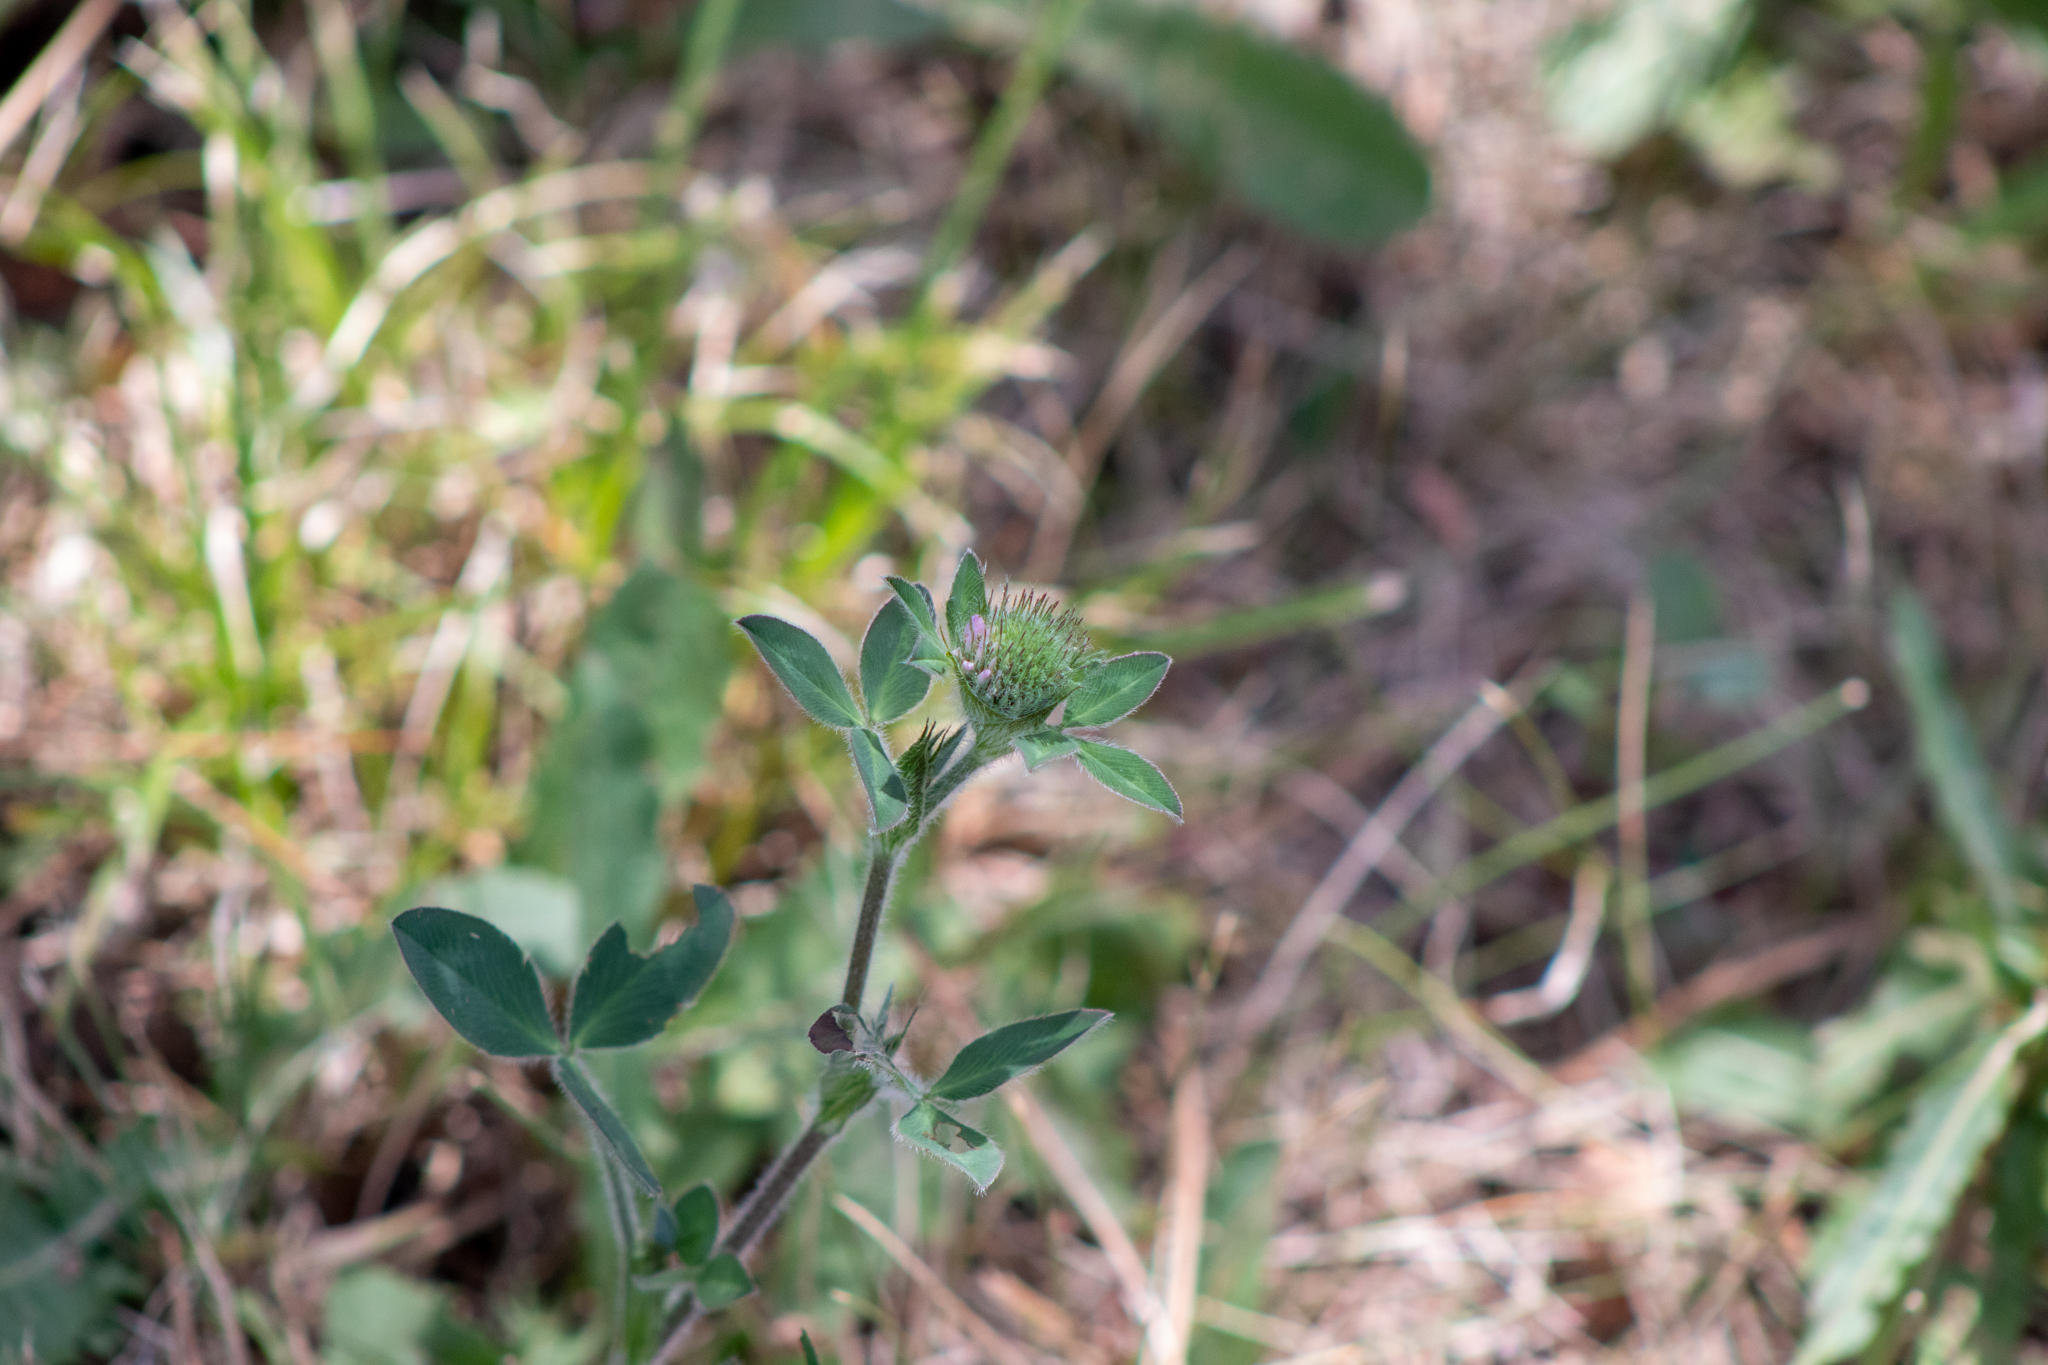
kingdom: Plantae
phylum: Tracheophyta
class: Magnoliopsida
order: Fabales
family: Fabaceae
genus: Trifolium
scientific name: Trifolium pratense
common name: Red clover
